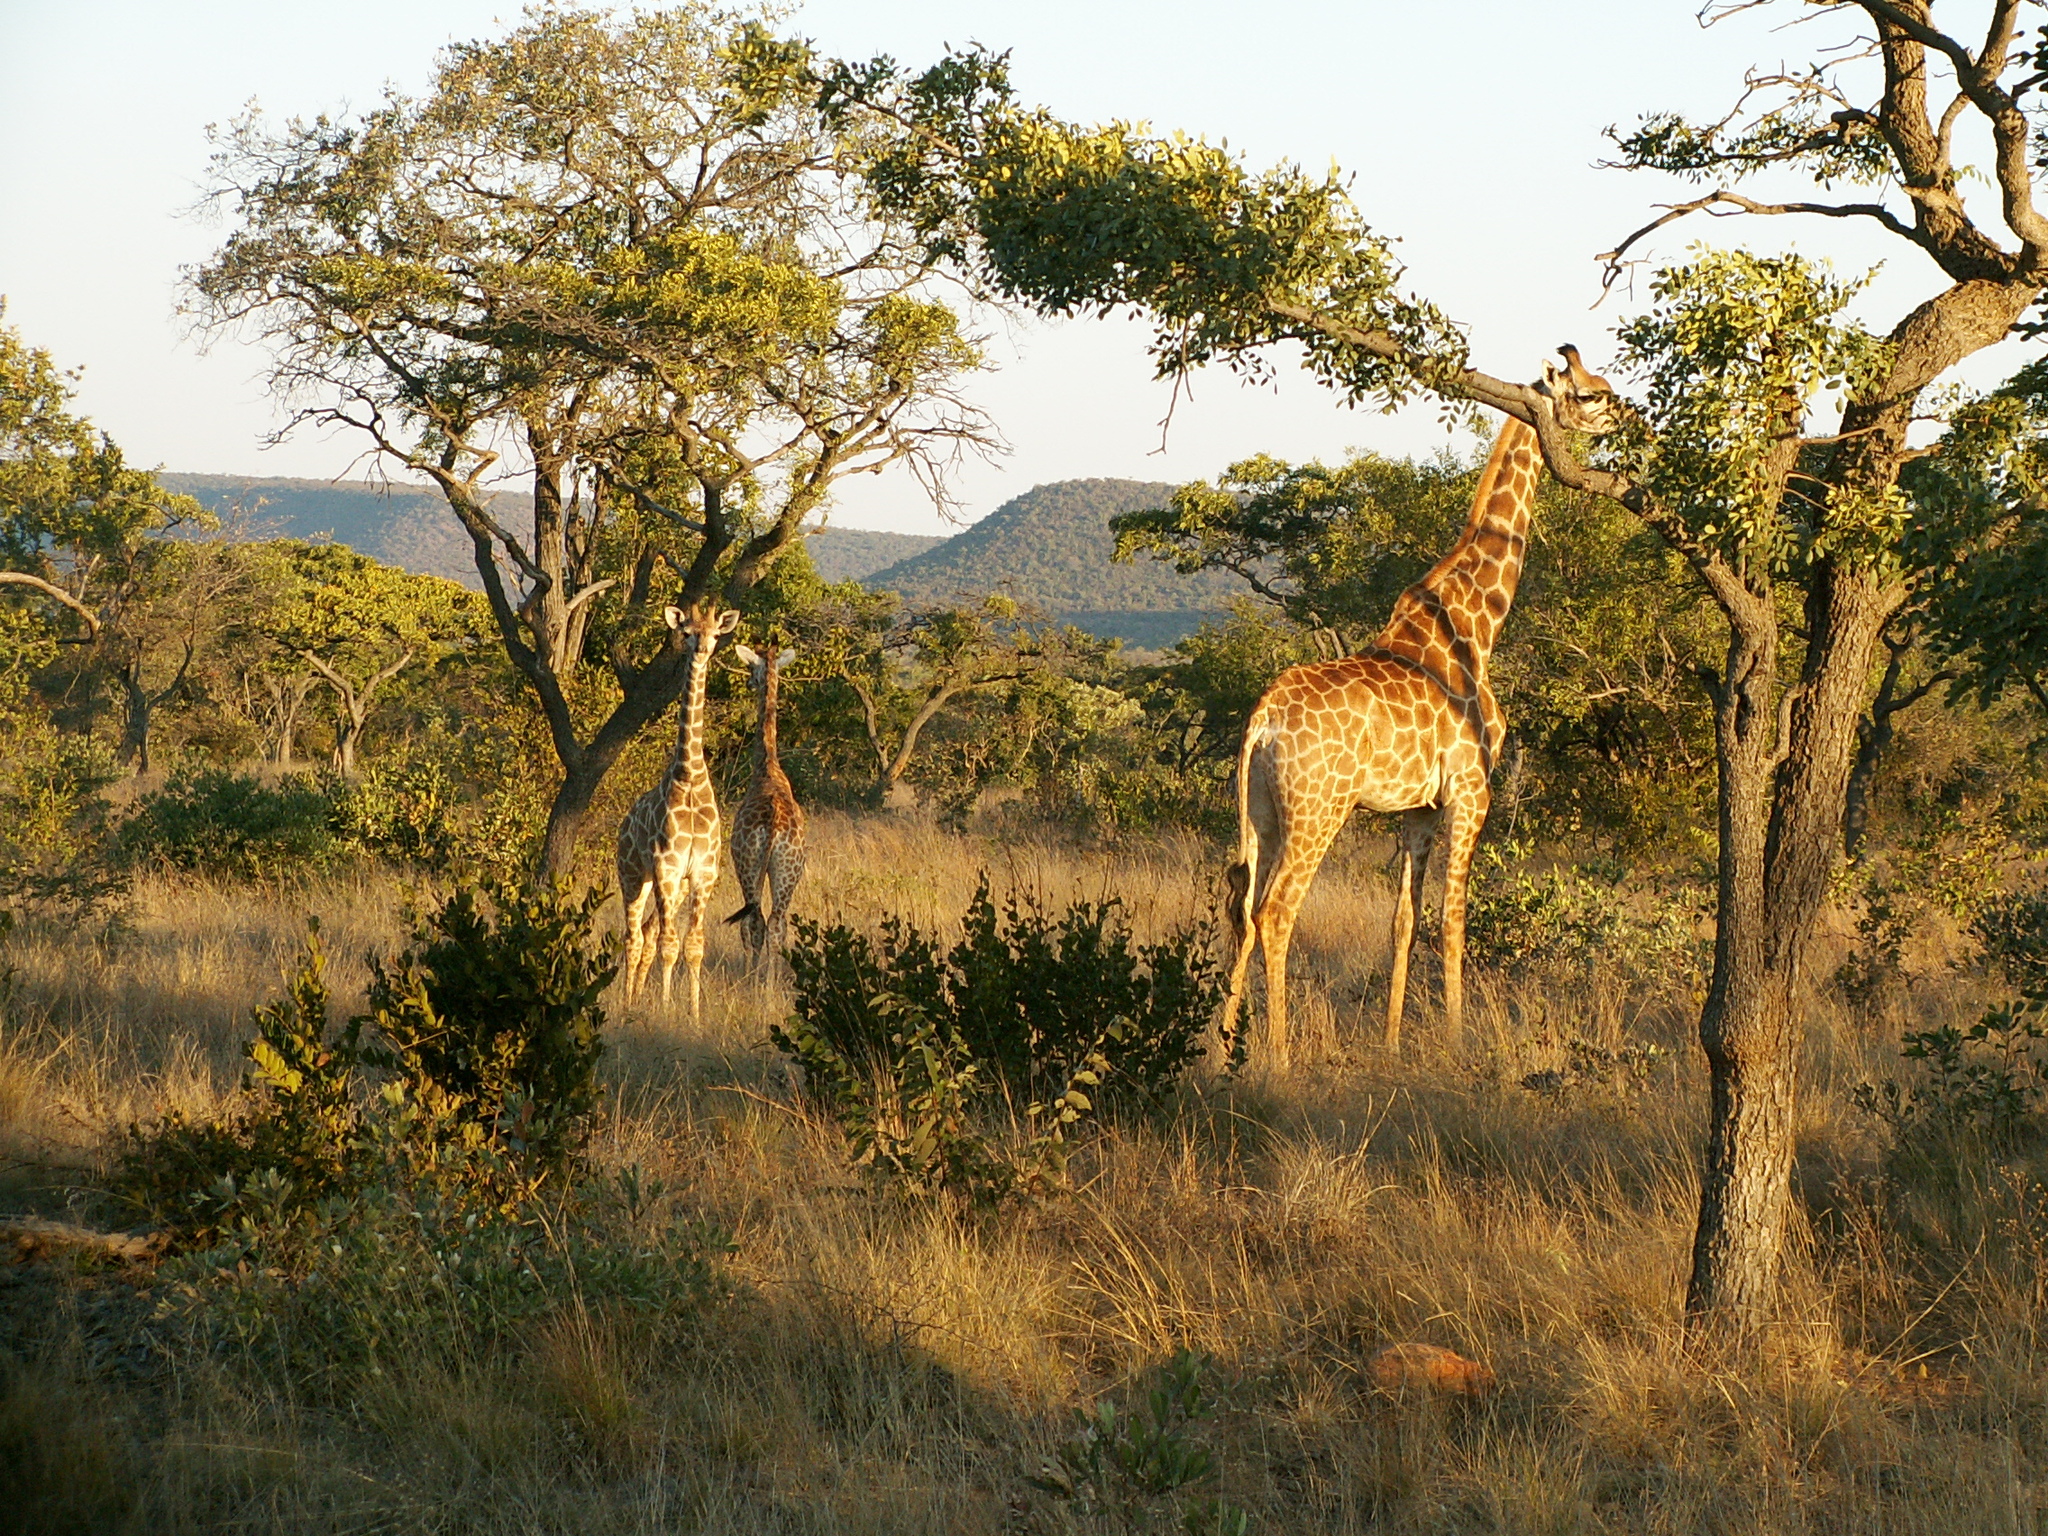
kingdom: Animalia
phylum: Chordata
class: Mammalia
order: Artiodactyla
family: Giraffidae
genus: Giraffa
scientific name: Giraffa giraffa
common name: Southern giraffe
